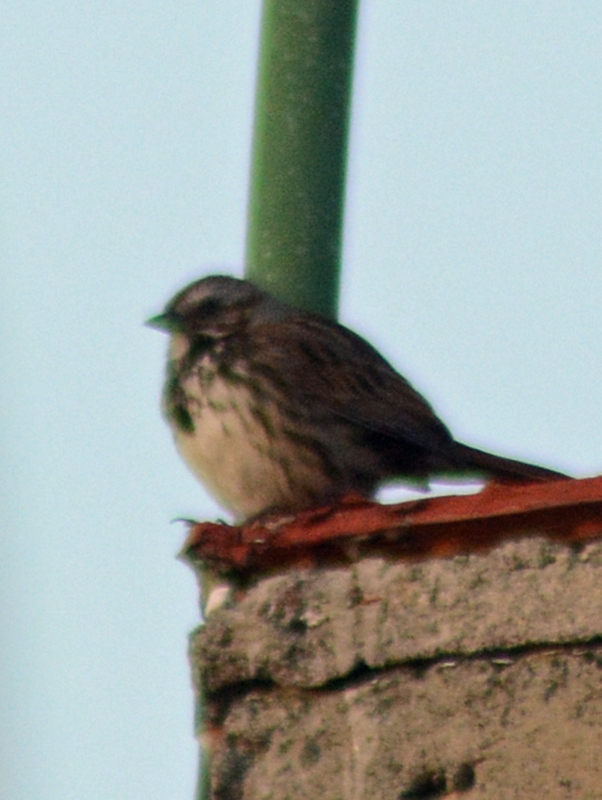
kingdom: Animalia
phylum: Chordata
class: Aves
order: Passeriformes
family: Passerellidae
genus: Melospiza
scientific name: Melospiza melodia
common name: Song sparrow
